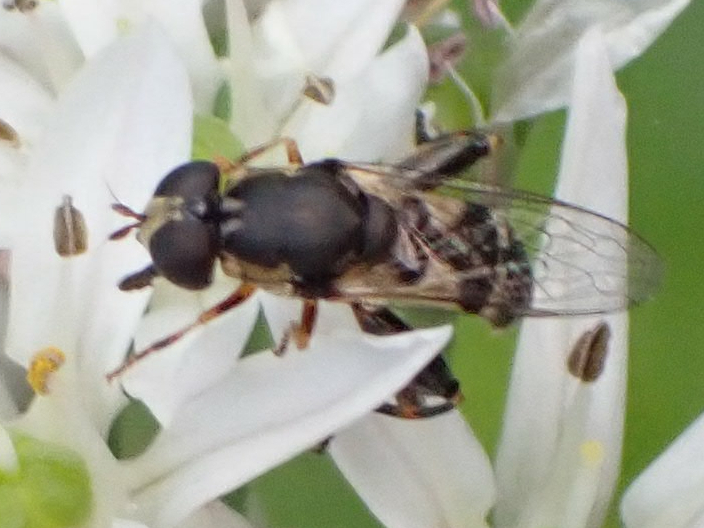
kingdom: Animalia
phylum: Arthropoda
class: Insecta
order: Diptera
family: Syrphidae
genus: Syritta
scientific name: Syritta pipiens
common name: Hover fly
